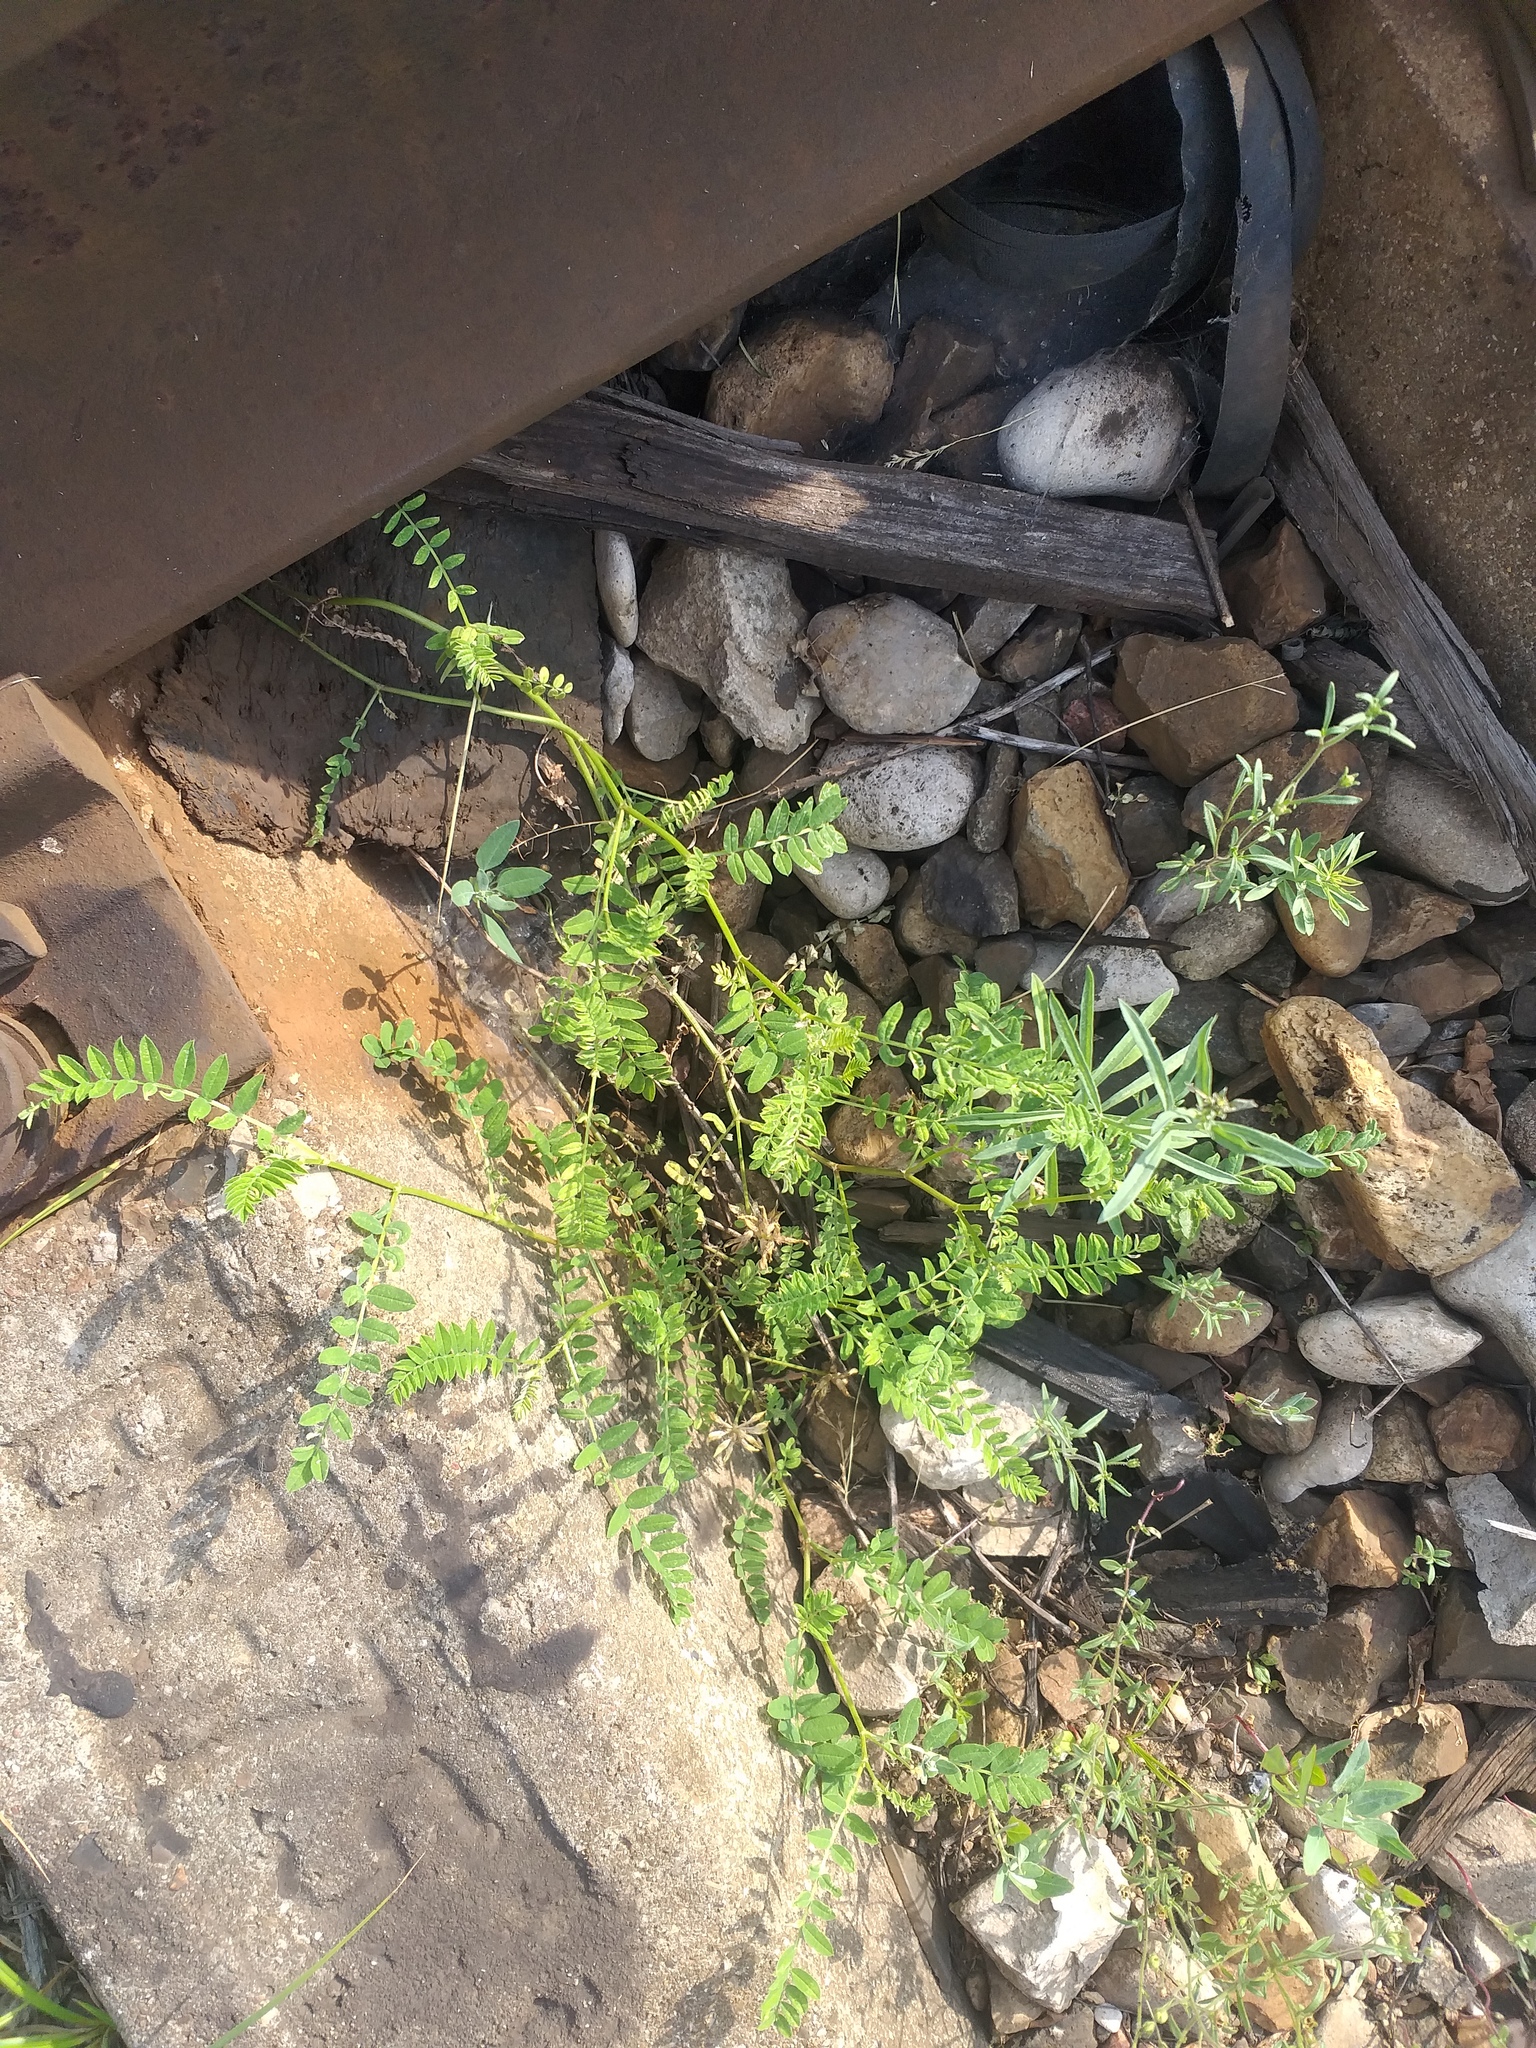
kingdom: Plantae
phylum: Tracheophyta
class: Magnoliopsida
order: Fabales
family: Fabaceae
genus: Astragalus
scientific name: Astragalus cicer
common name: Chick-pea milk-vetch
